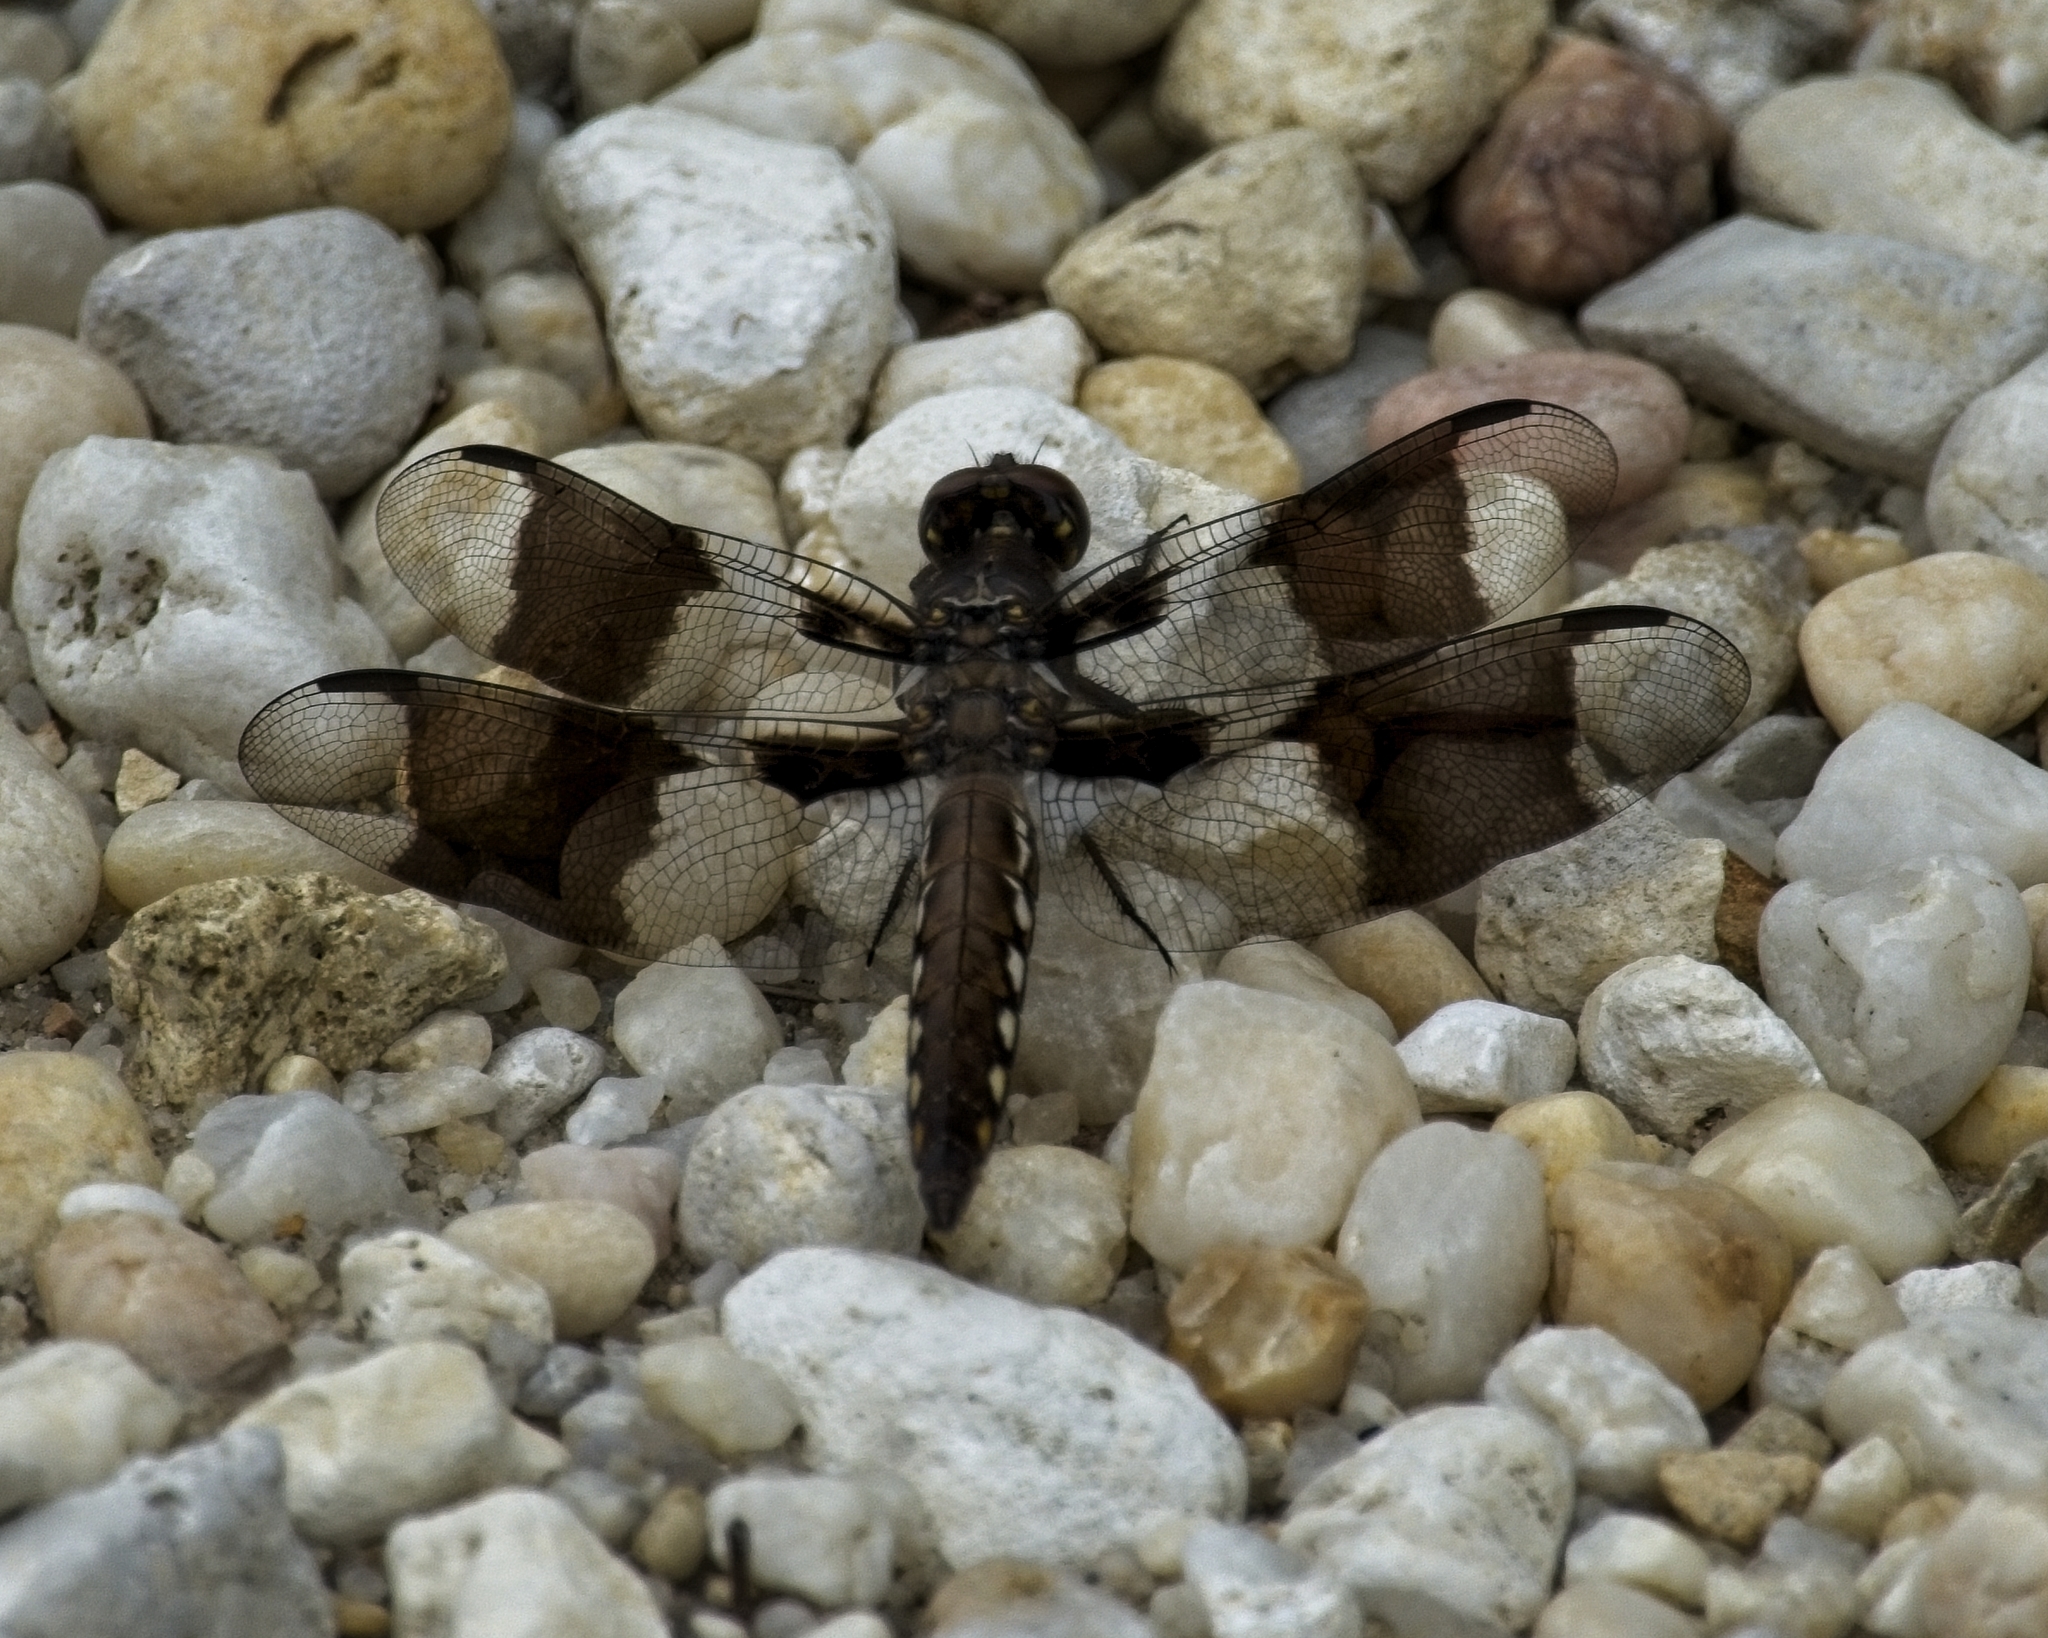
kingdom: Animalia
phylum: Arthropoda
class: Insecta
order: Odonata
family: Libellulidae
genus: Plathemis
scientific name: Plathemis lydia
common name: Common whitetail
